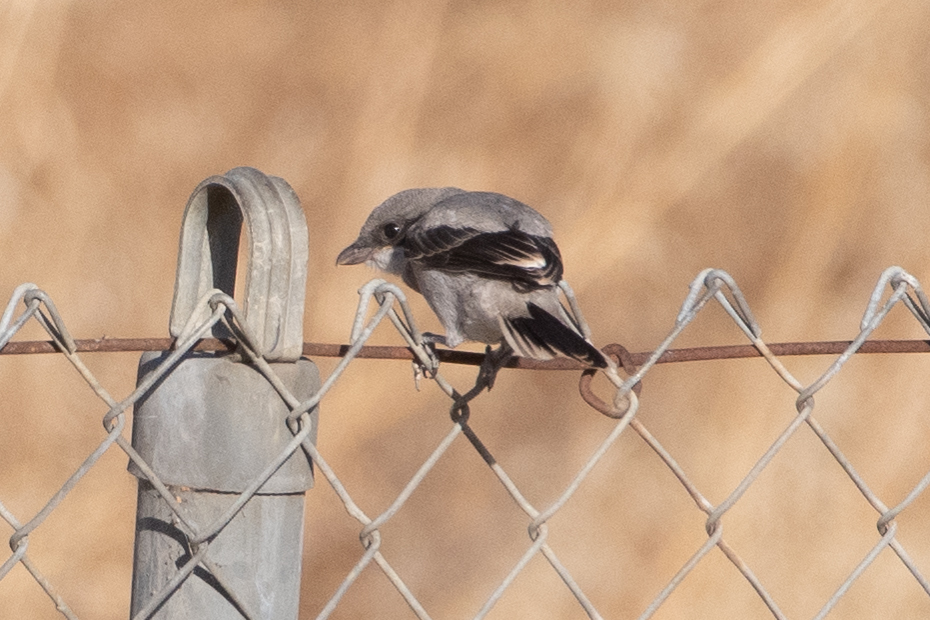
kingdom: Animalia
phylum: Chordata
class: Aves
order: Passeriformes
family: Laniidae
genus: Lanius
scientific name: Lanius ludovicianus
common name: Loggerhead shrike
